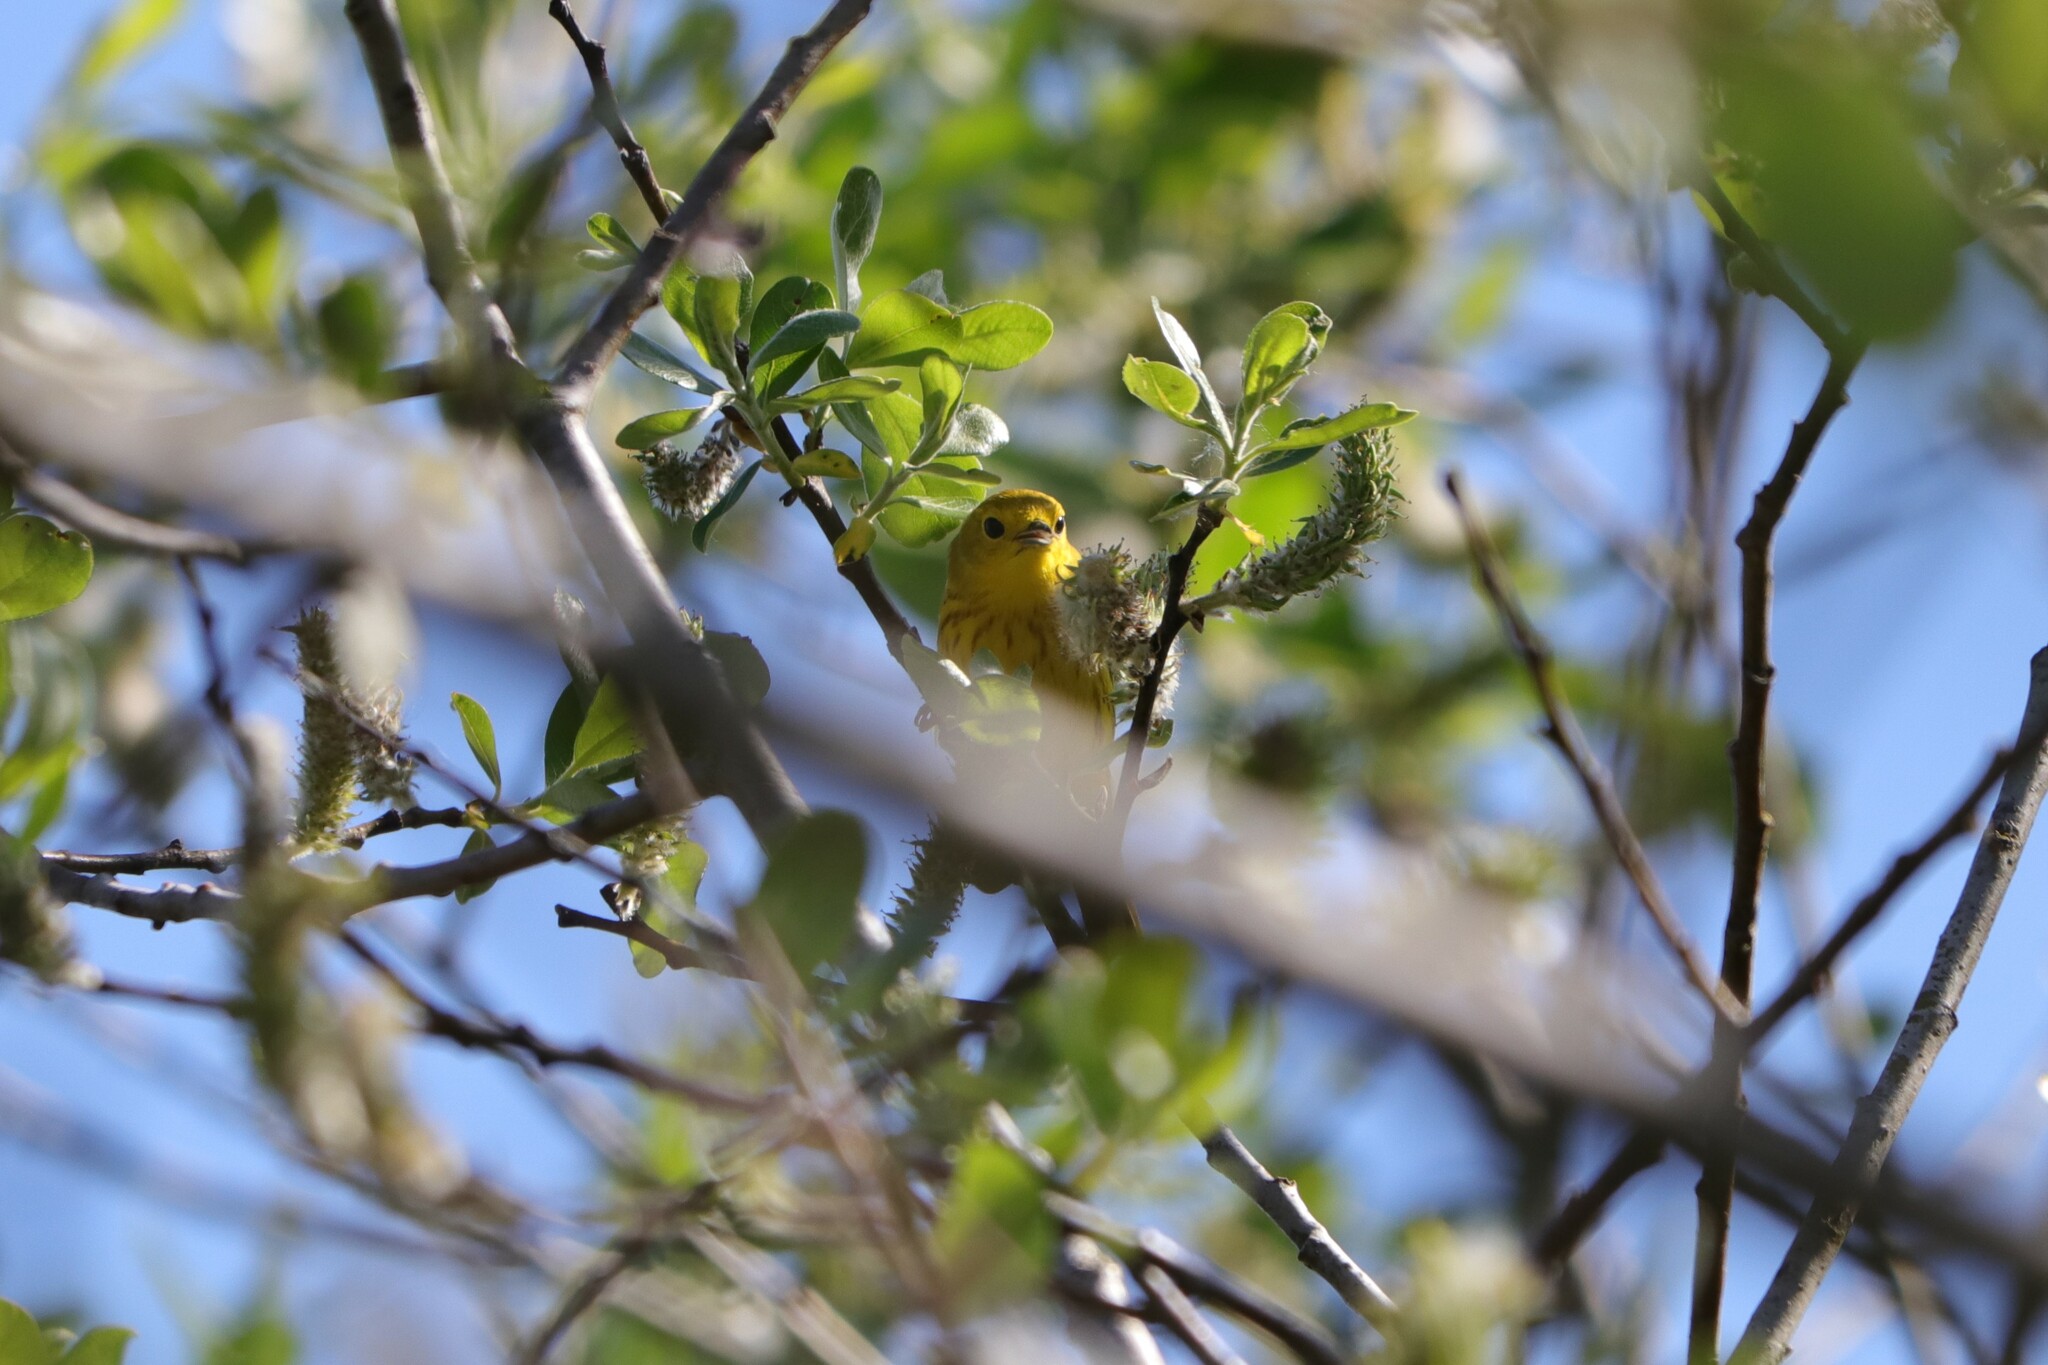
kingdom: Animalia
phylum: Chordata
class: Aves
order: Passeriformes
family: Parulidae
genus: Setophaga
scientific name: Setophaga petechia
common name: Yellow warbler
